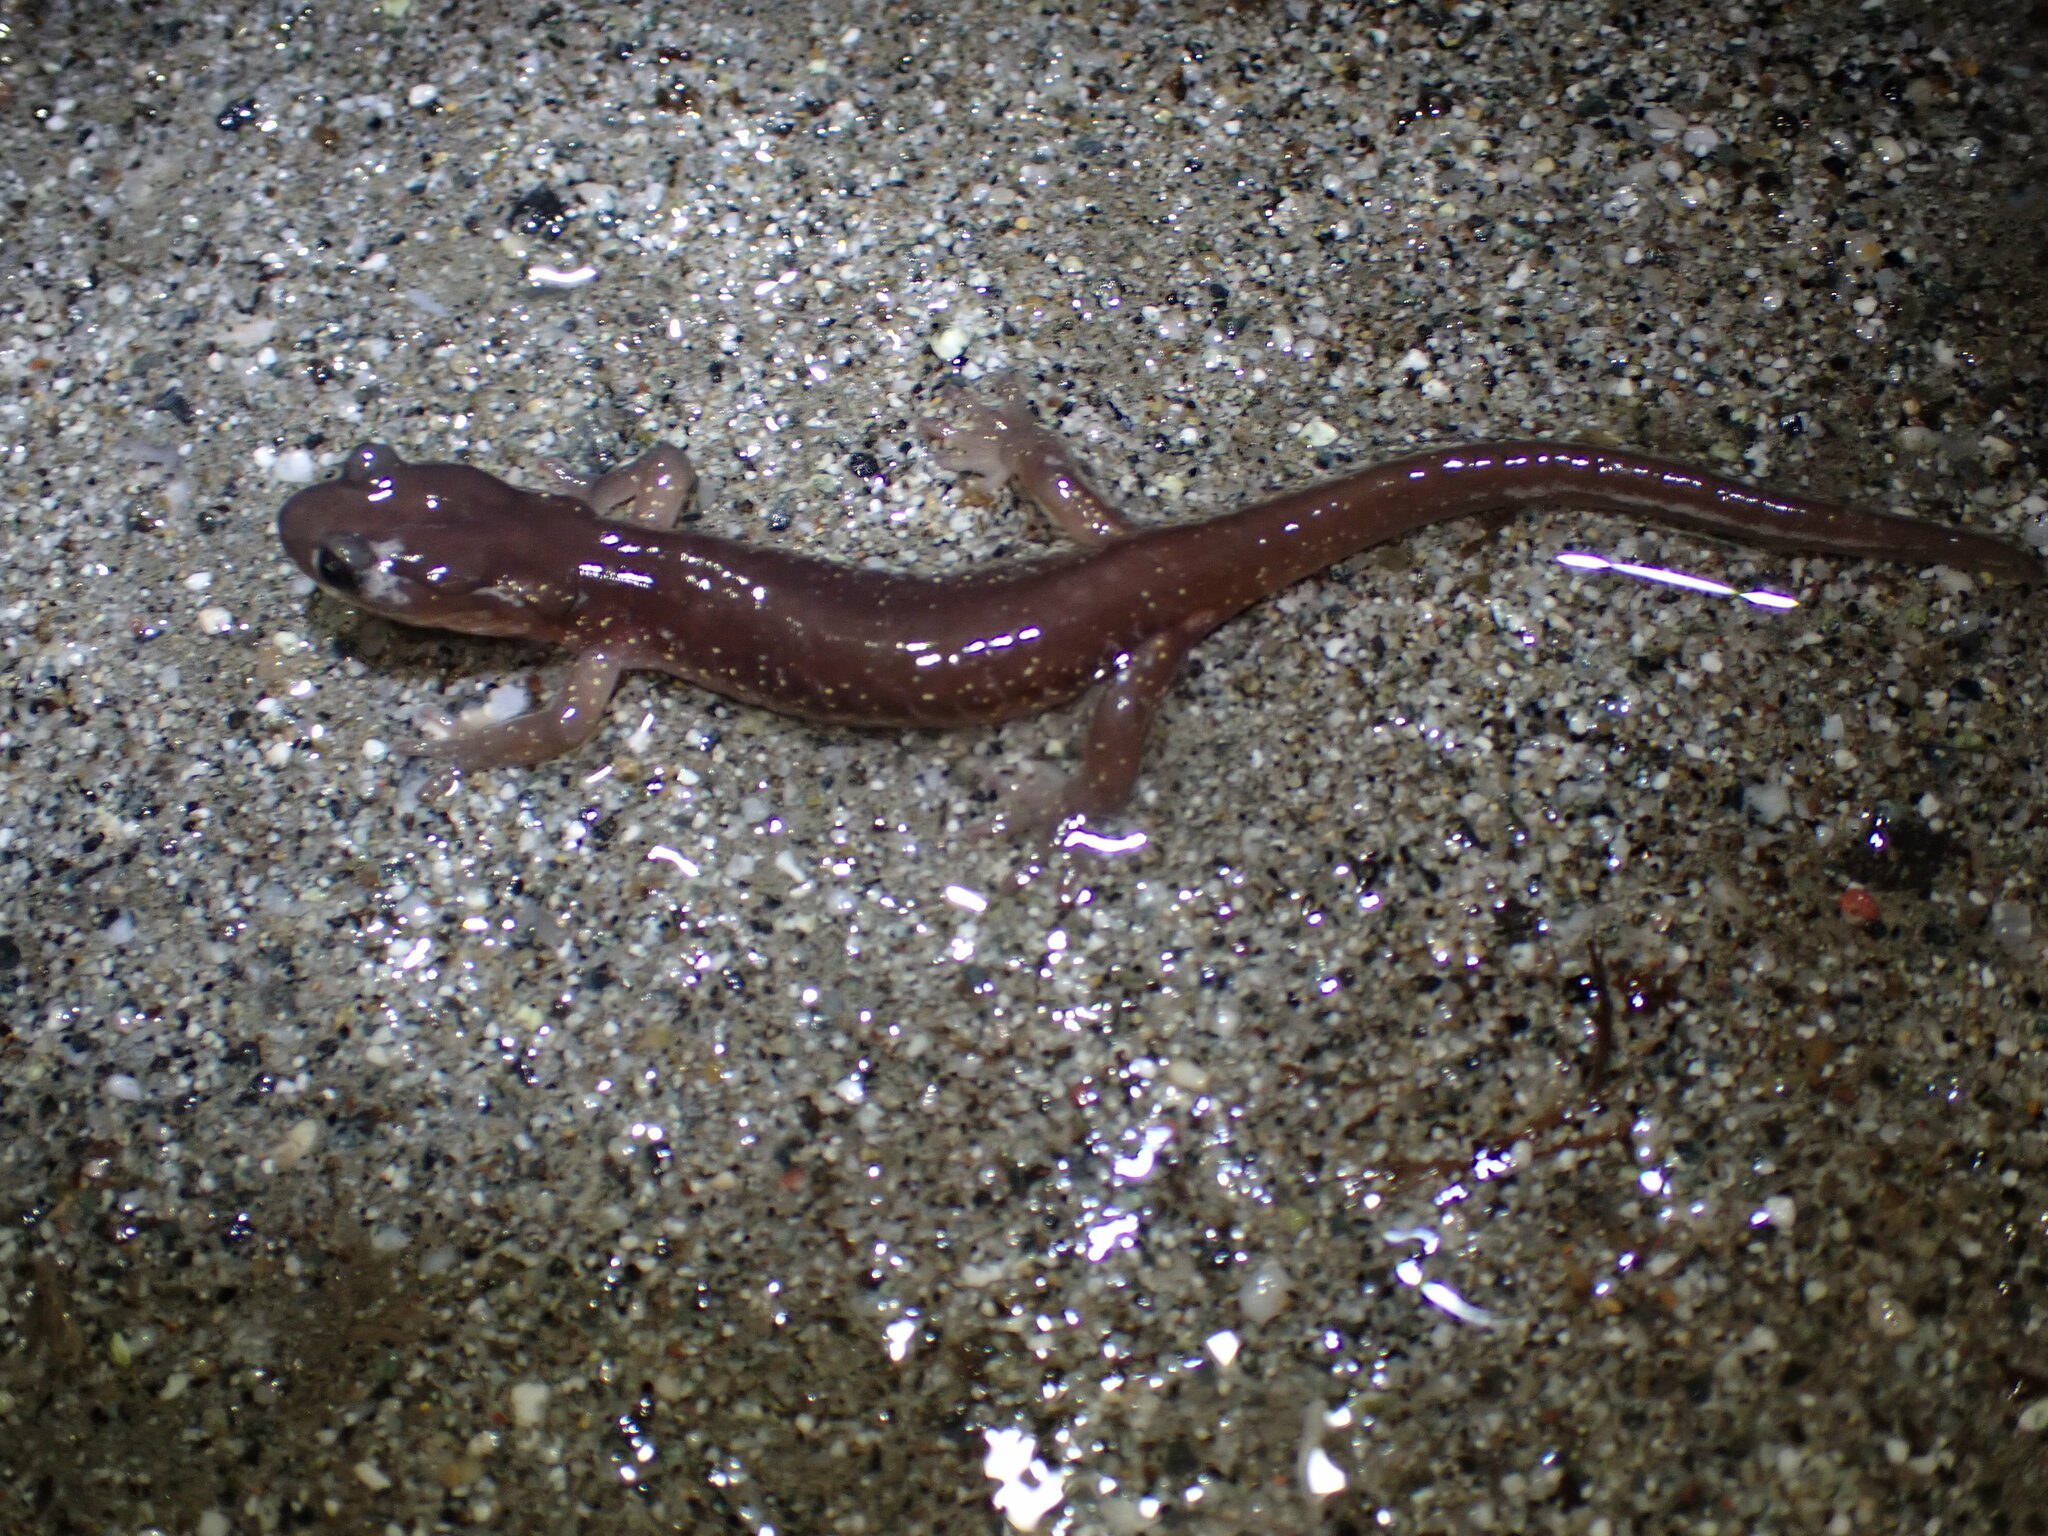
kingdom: Animalia
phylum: Chordata
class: Amphibia
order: Caudata
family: Plethodontidae
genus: Aneides
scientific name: Aneides lugubris
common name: Arboreal salamander
